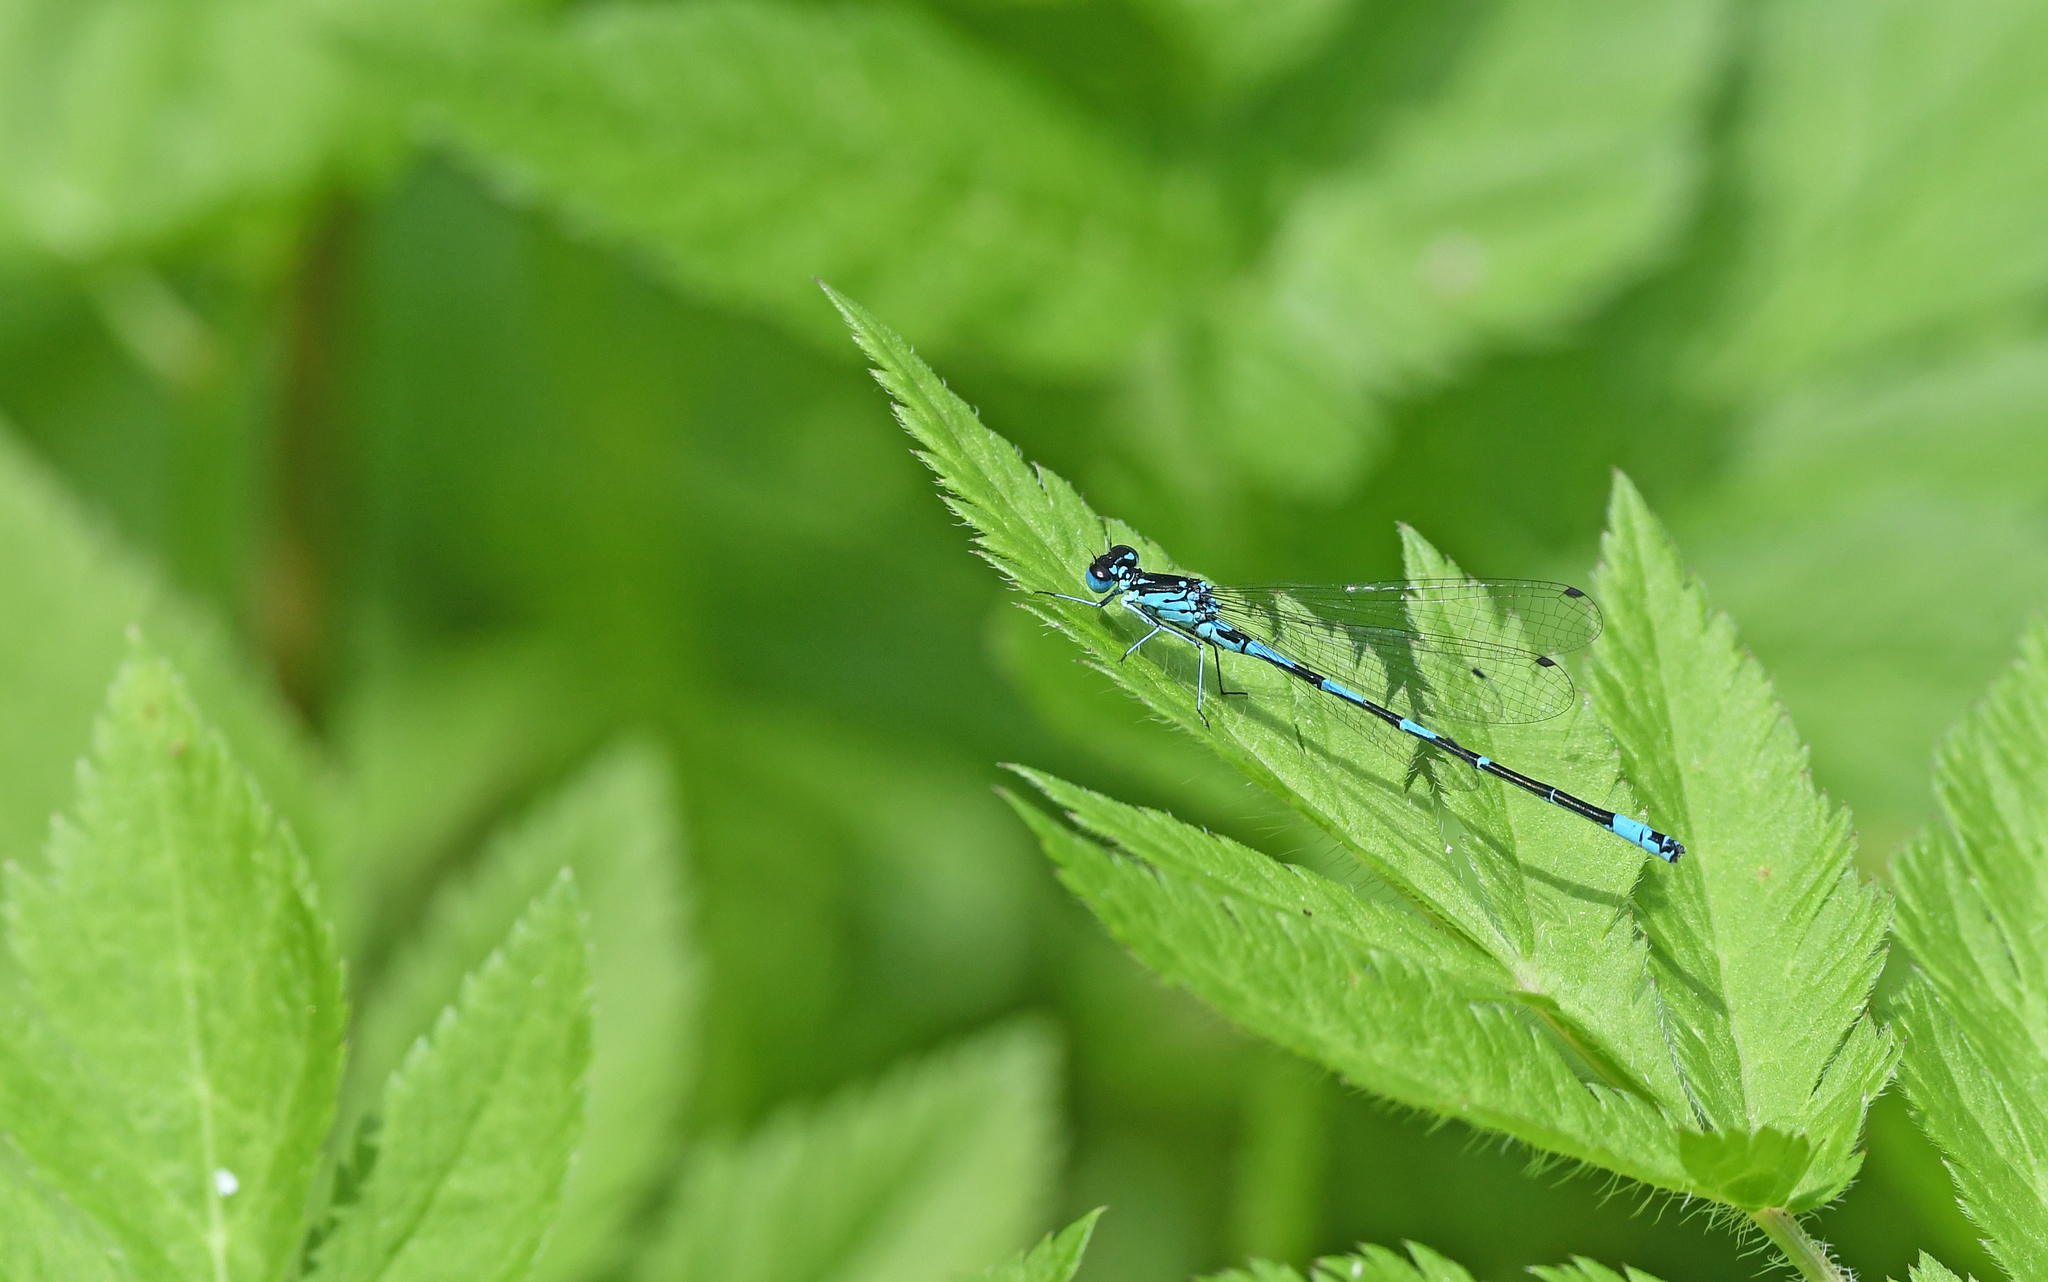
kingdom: Animalia
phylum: Arthropoda
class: Insecta
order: Odonata
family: Coenagrionidae
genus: Coenagrion
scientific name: Coenagrion pulchellum
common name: Variable bluet
